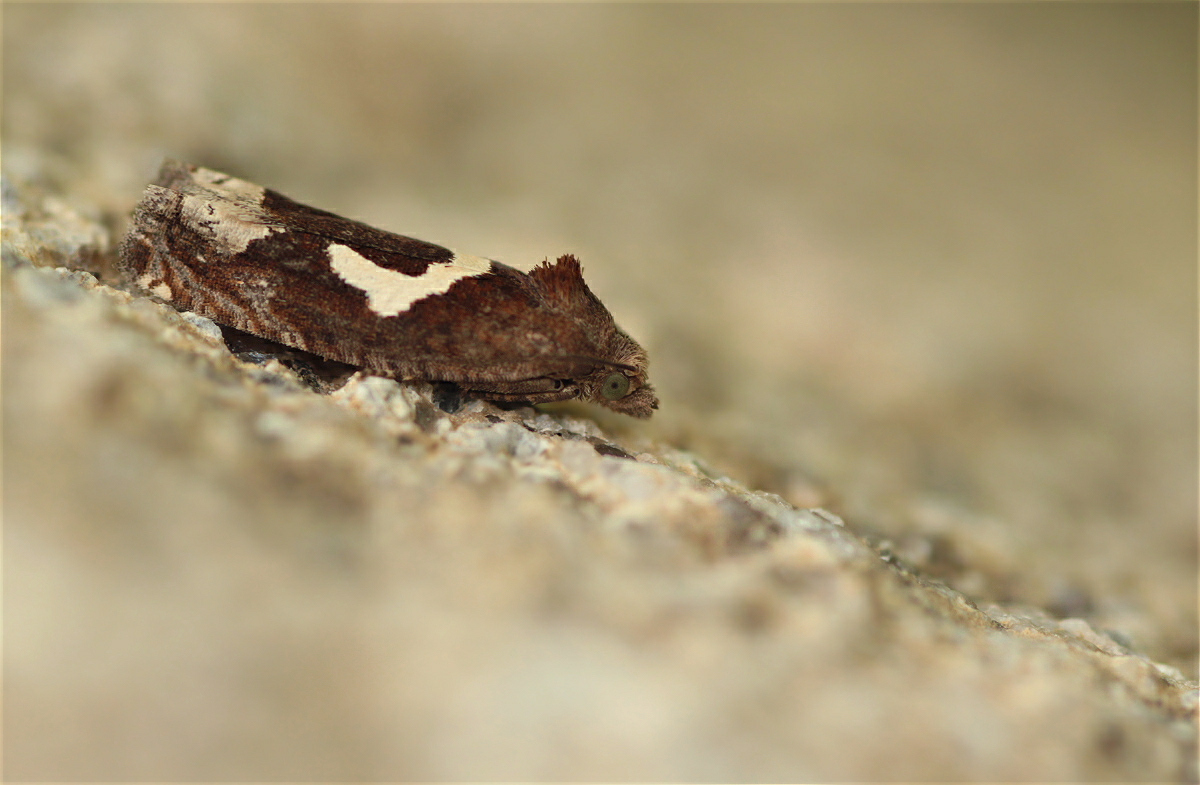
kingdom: Animalia
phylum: Arthropoda
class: Insecta
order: Lepidoptera
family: Tortricidae
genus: Epiblema
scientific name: Epiblema foenella
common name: White-foot bell
